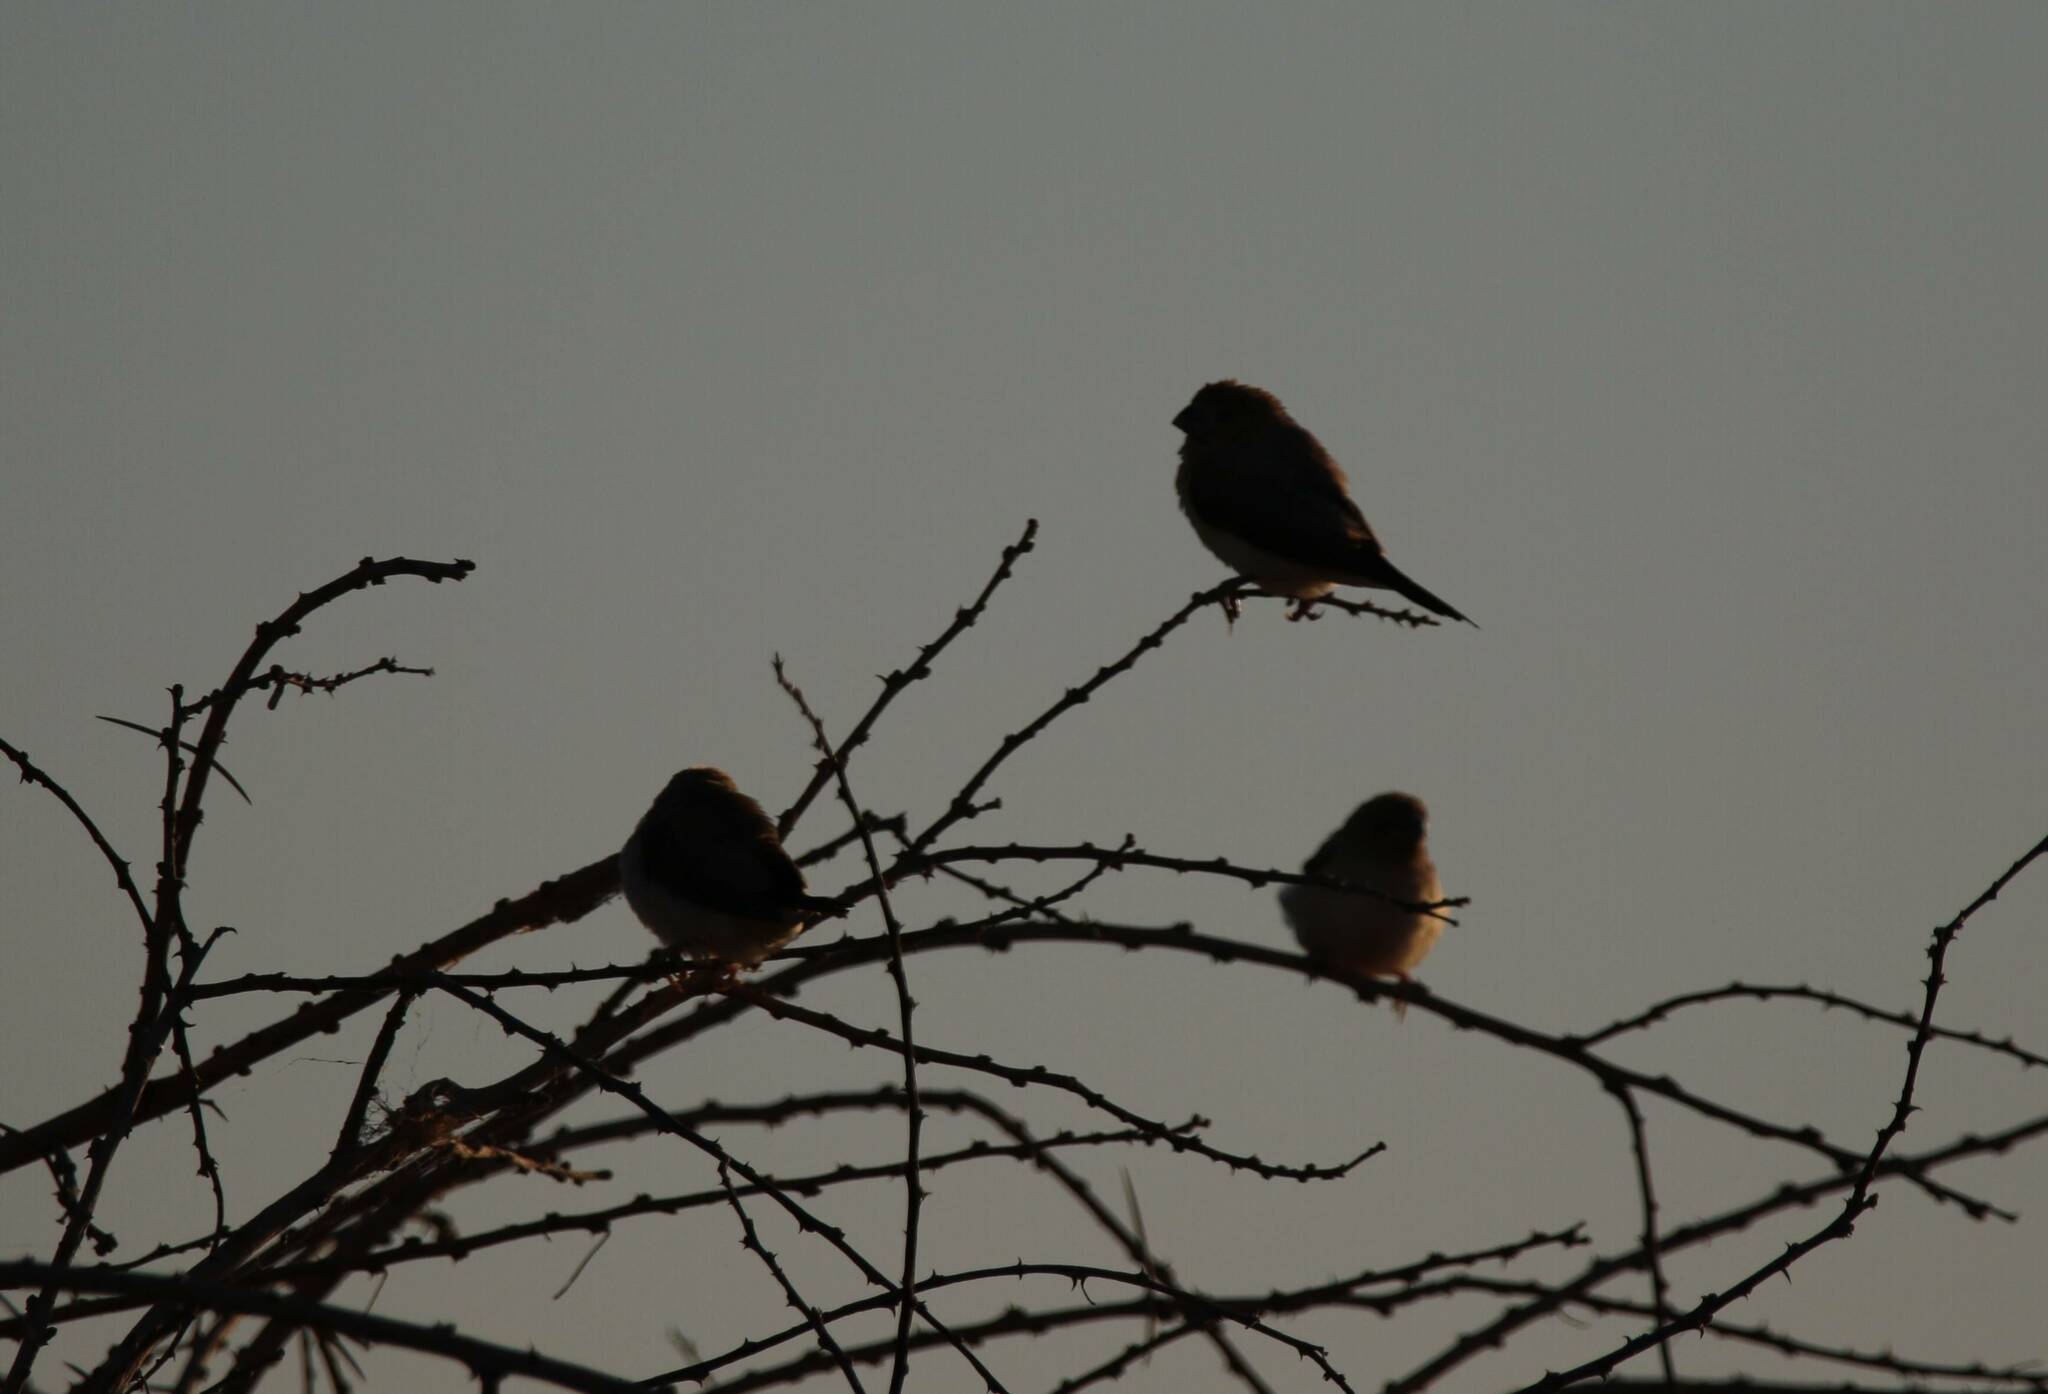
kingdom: Animalia
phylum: Chordata
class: Aves
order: Passeriformes
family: Estrildidae
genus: Euodice
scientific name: Euodice cantans
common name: African silverbill
